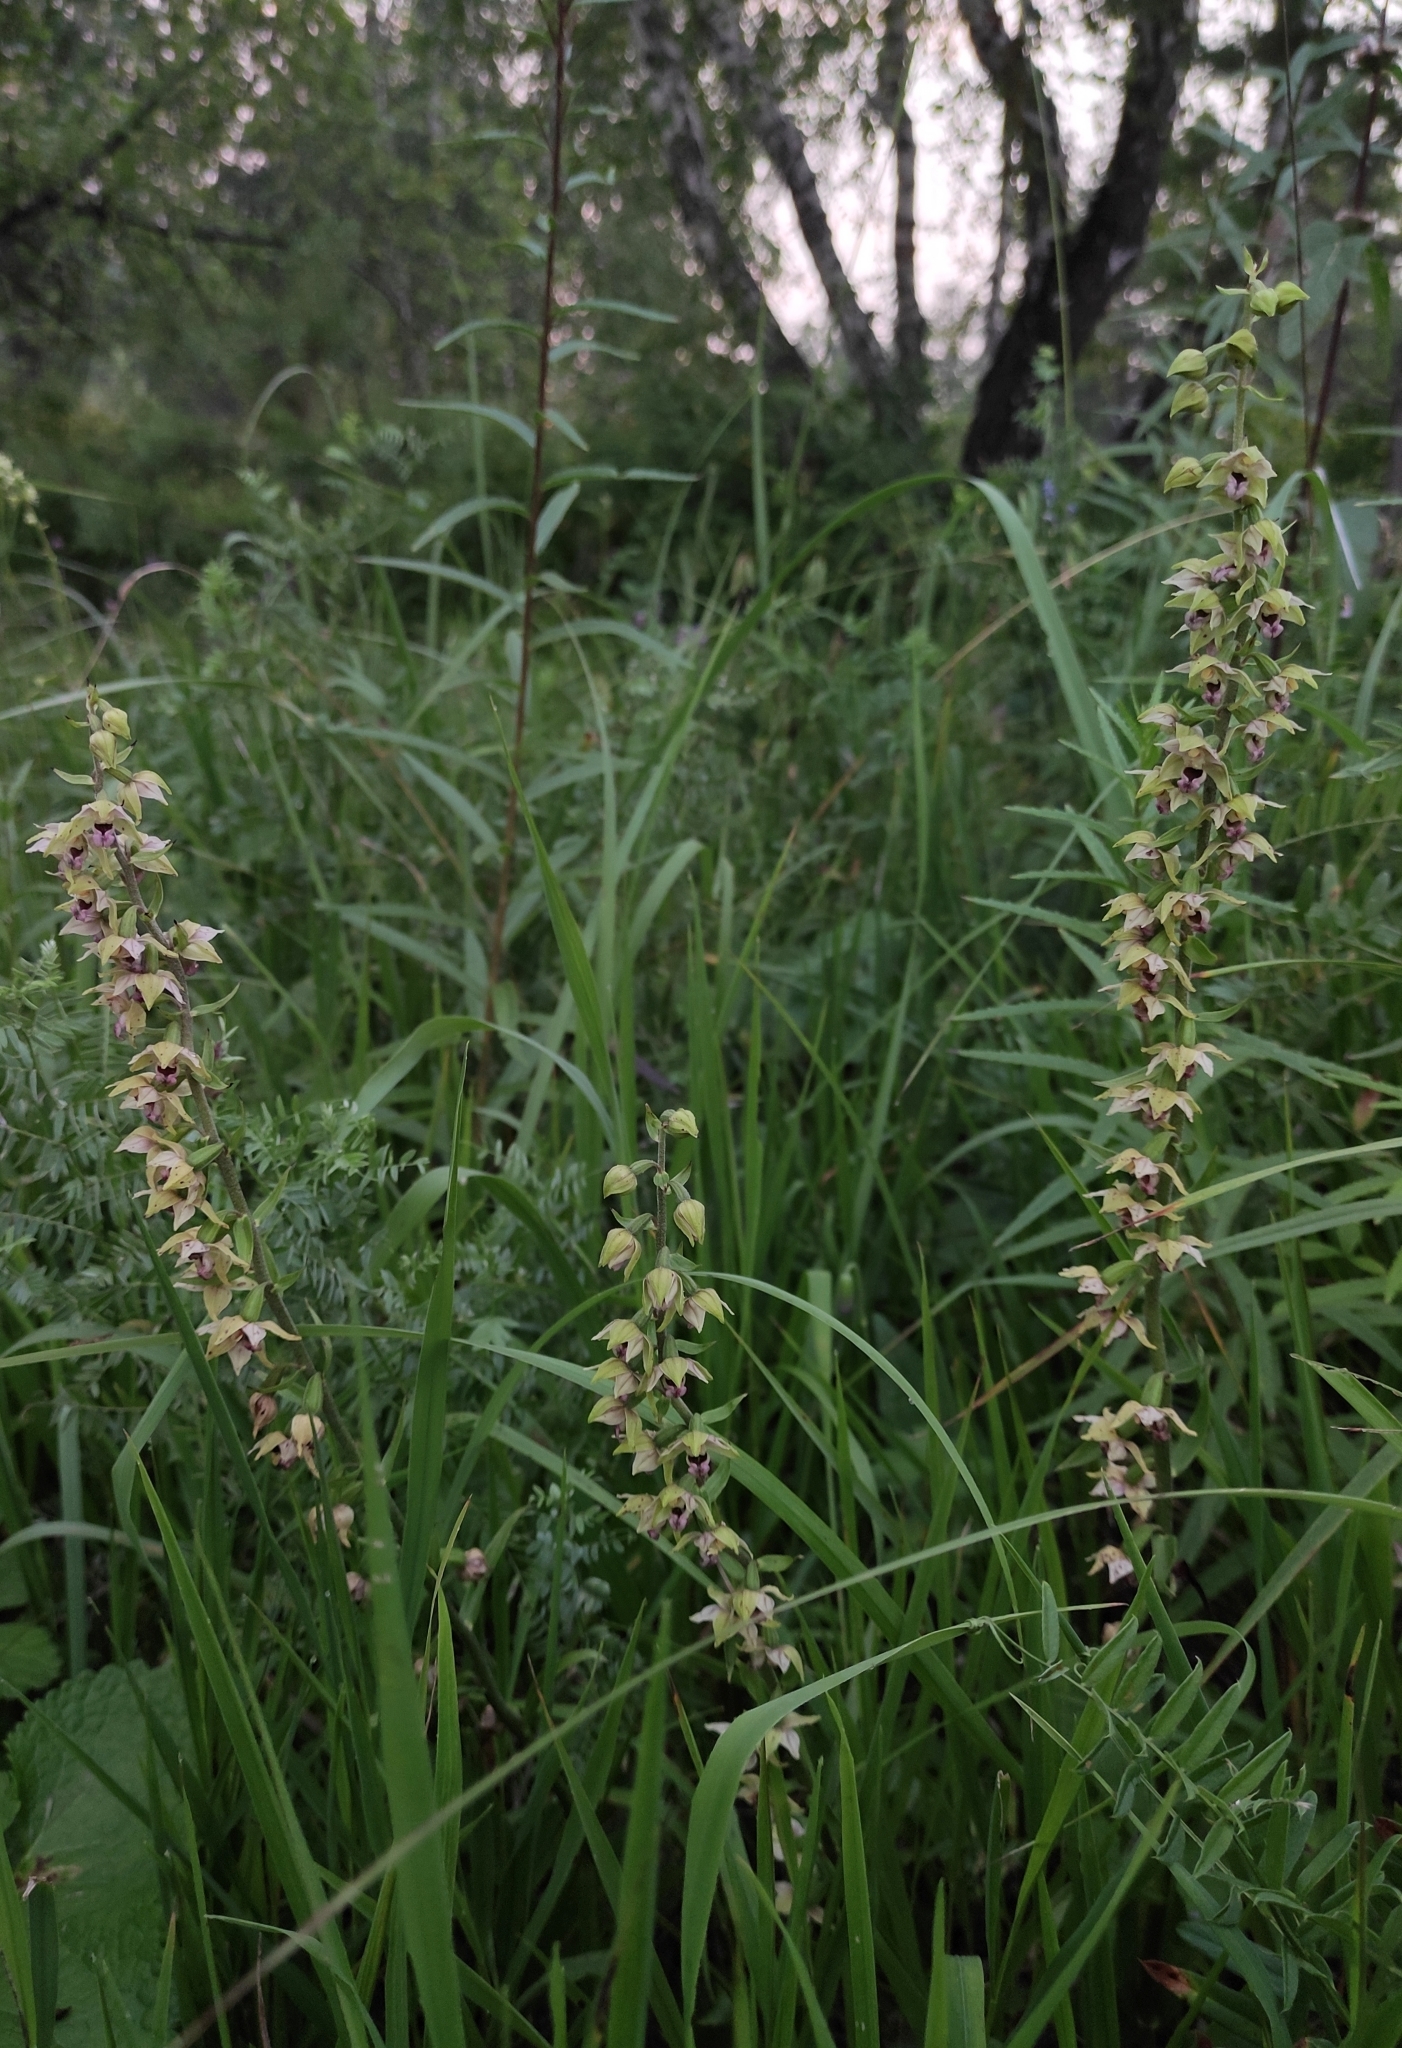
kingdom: Plantae
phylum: Tracheophyta
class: Liliopsida
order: Asparagales
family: Orchidaceae
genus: Epipactis
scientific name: Epipactis helleborine
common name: Broad-leaved helleborine
